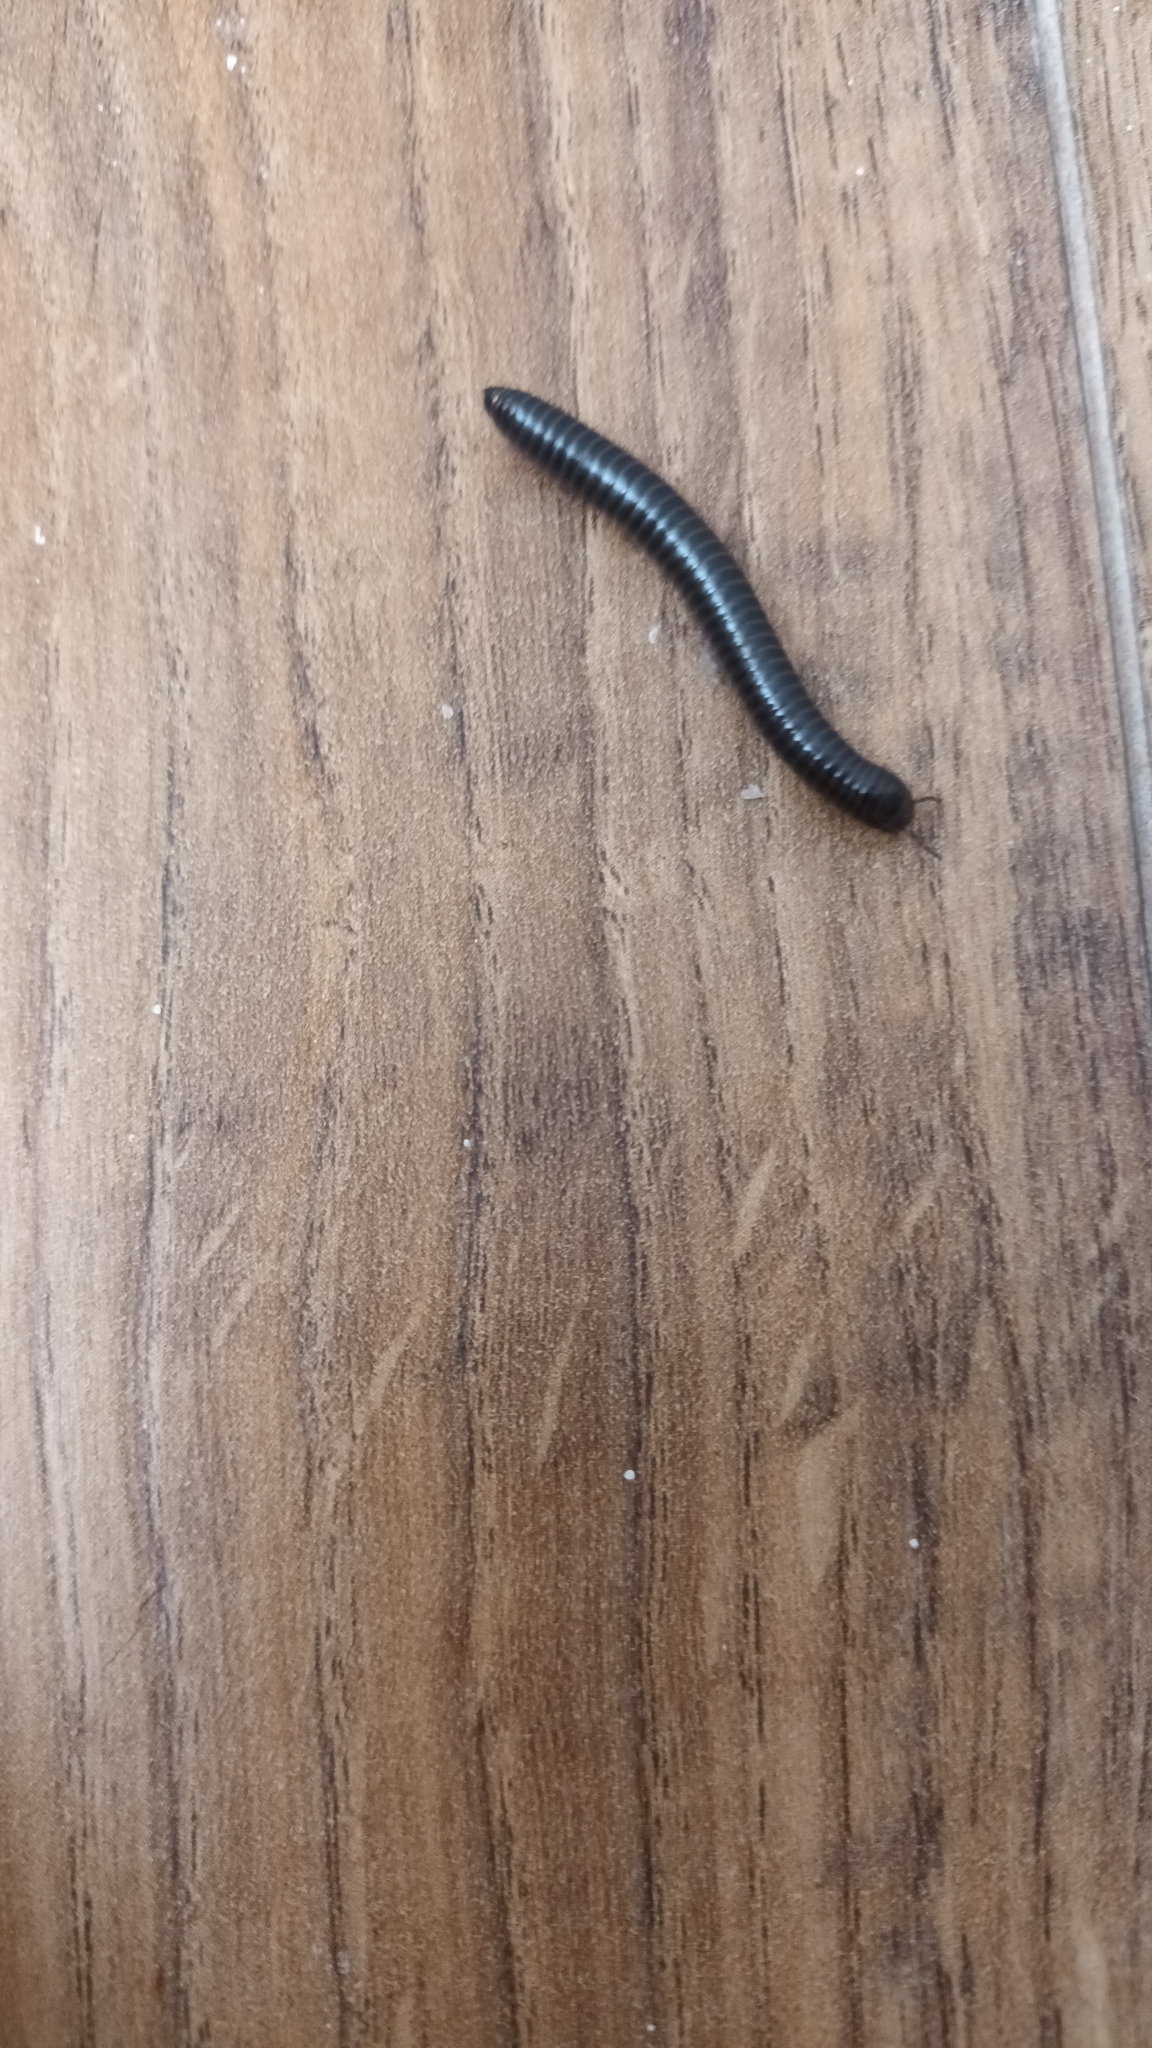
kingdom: Animalia
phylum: Arthropoda
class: Diplopoda
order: Julida
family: Julidae
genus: Cylindroiulus
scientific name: Cylindroiulus londinensis
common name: Black millipede
